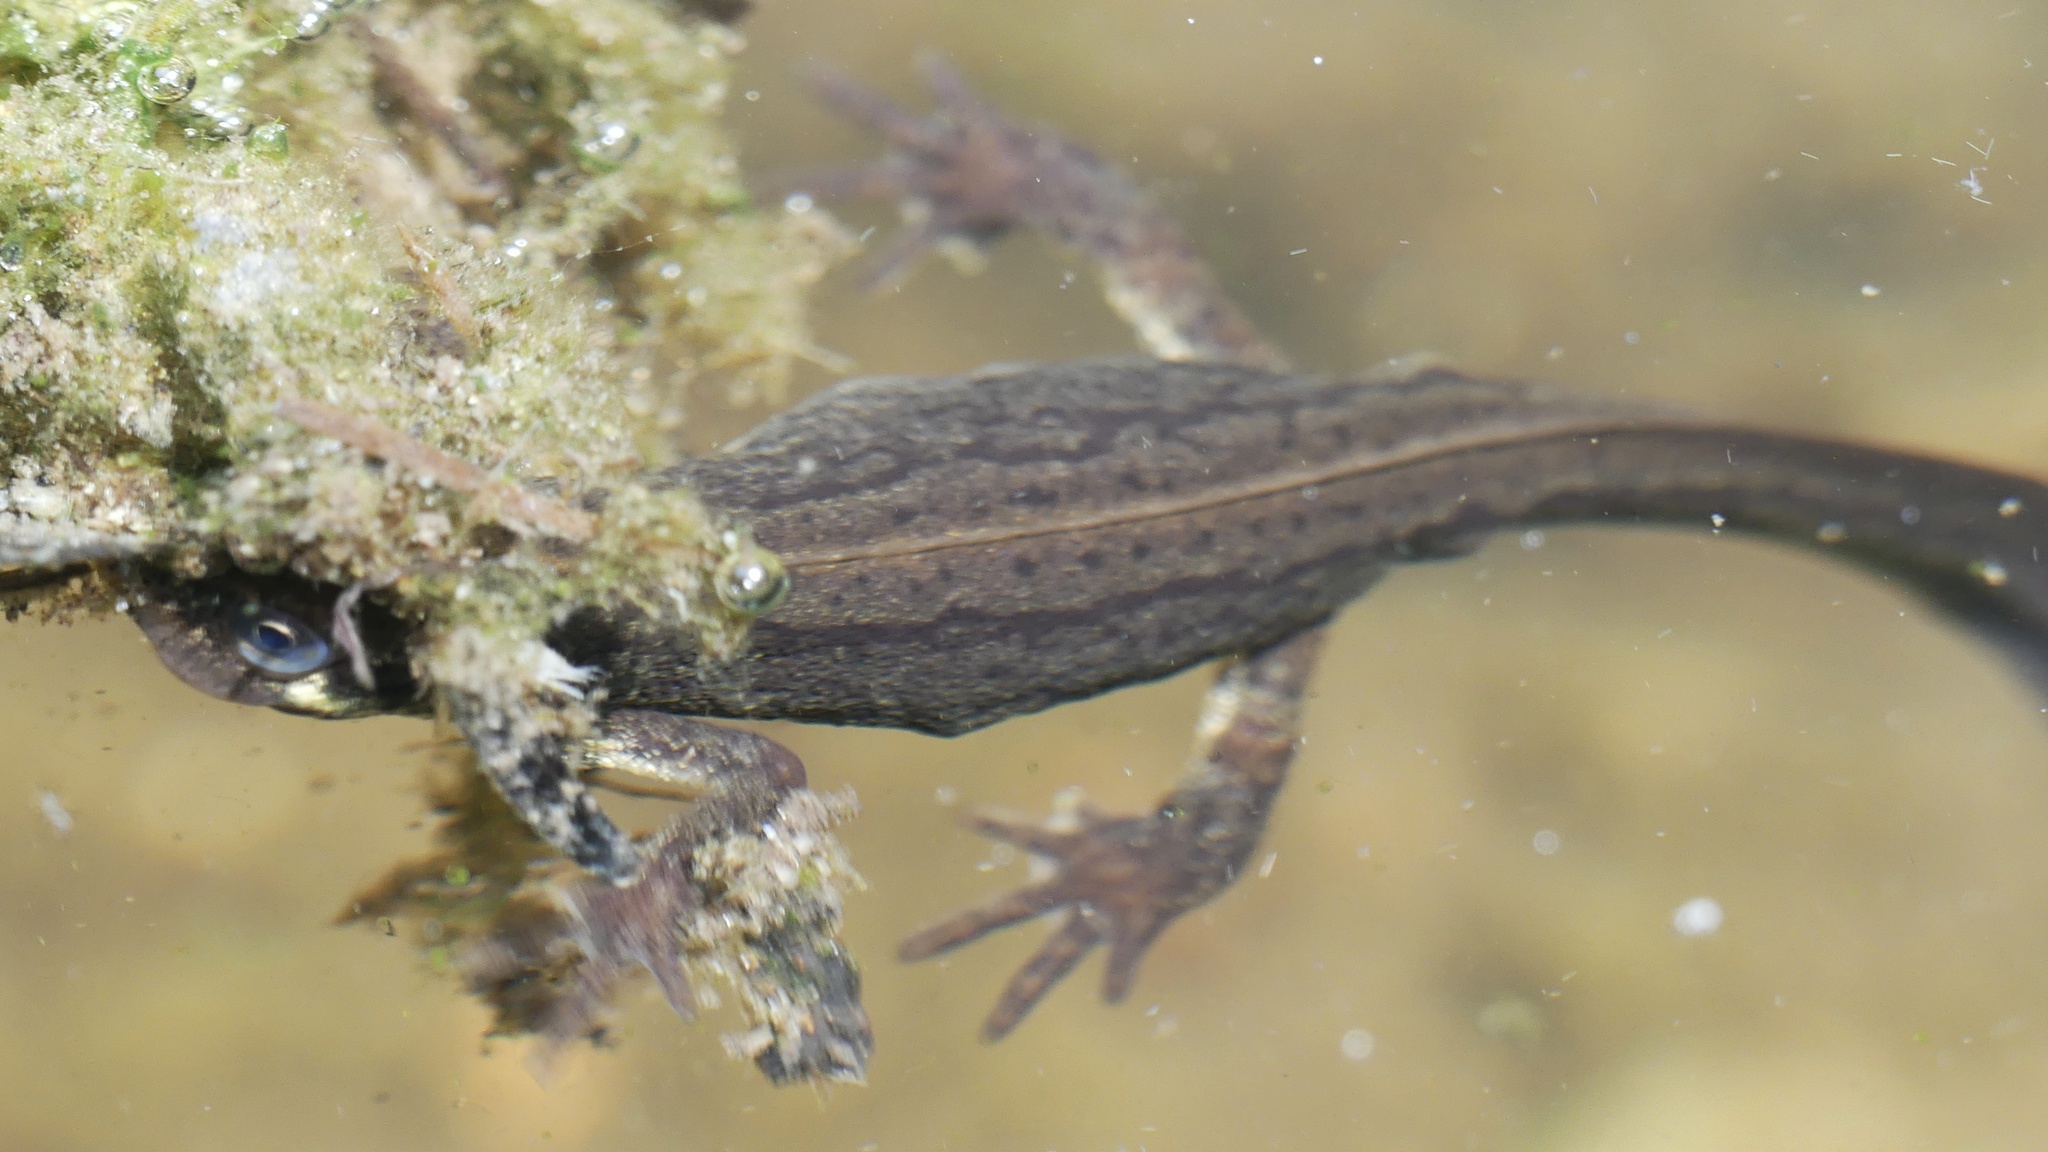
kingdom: Animalia
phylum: Chordata
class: Amphibia
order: Caudata
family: Salamandridae
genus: Lissotriton
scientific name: Lissotriton vulgaris
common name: Smooth newt
